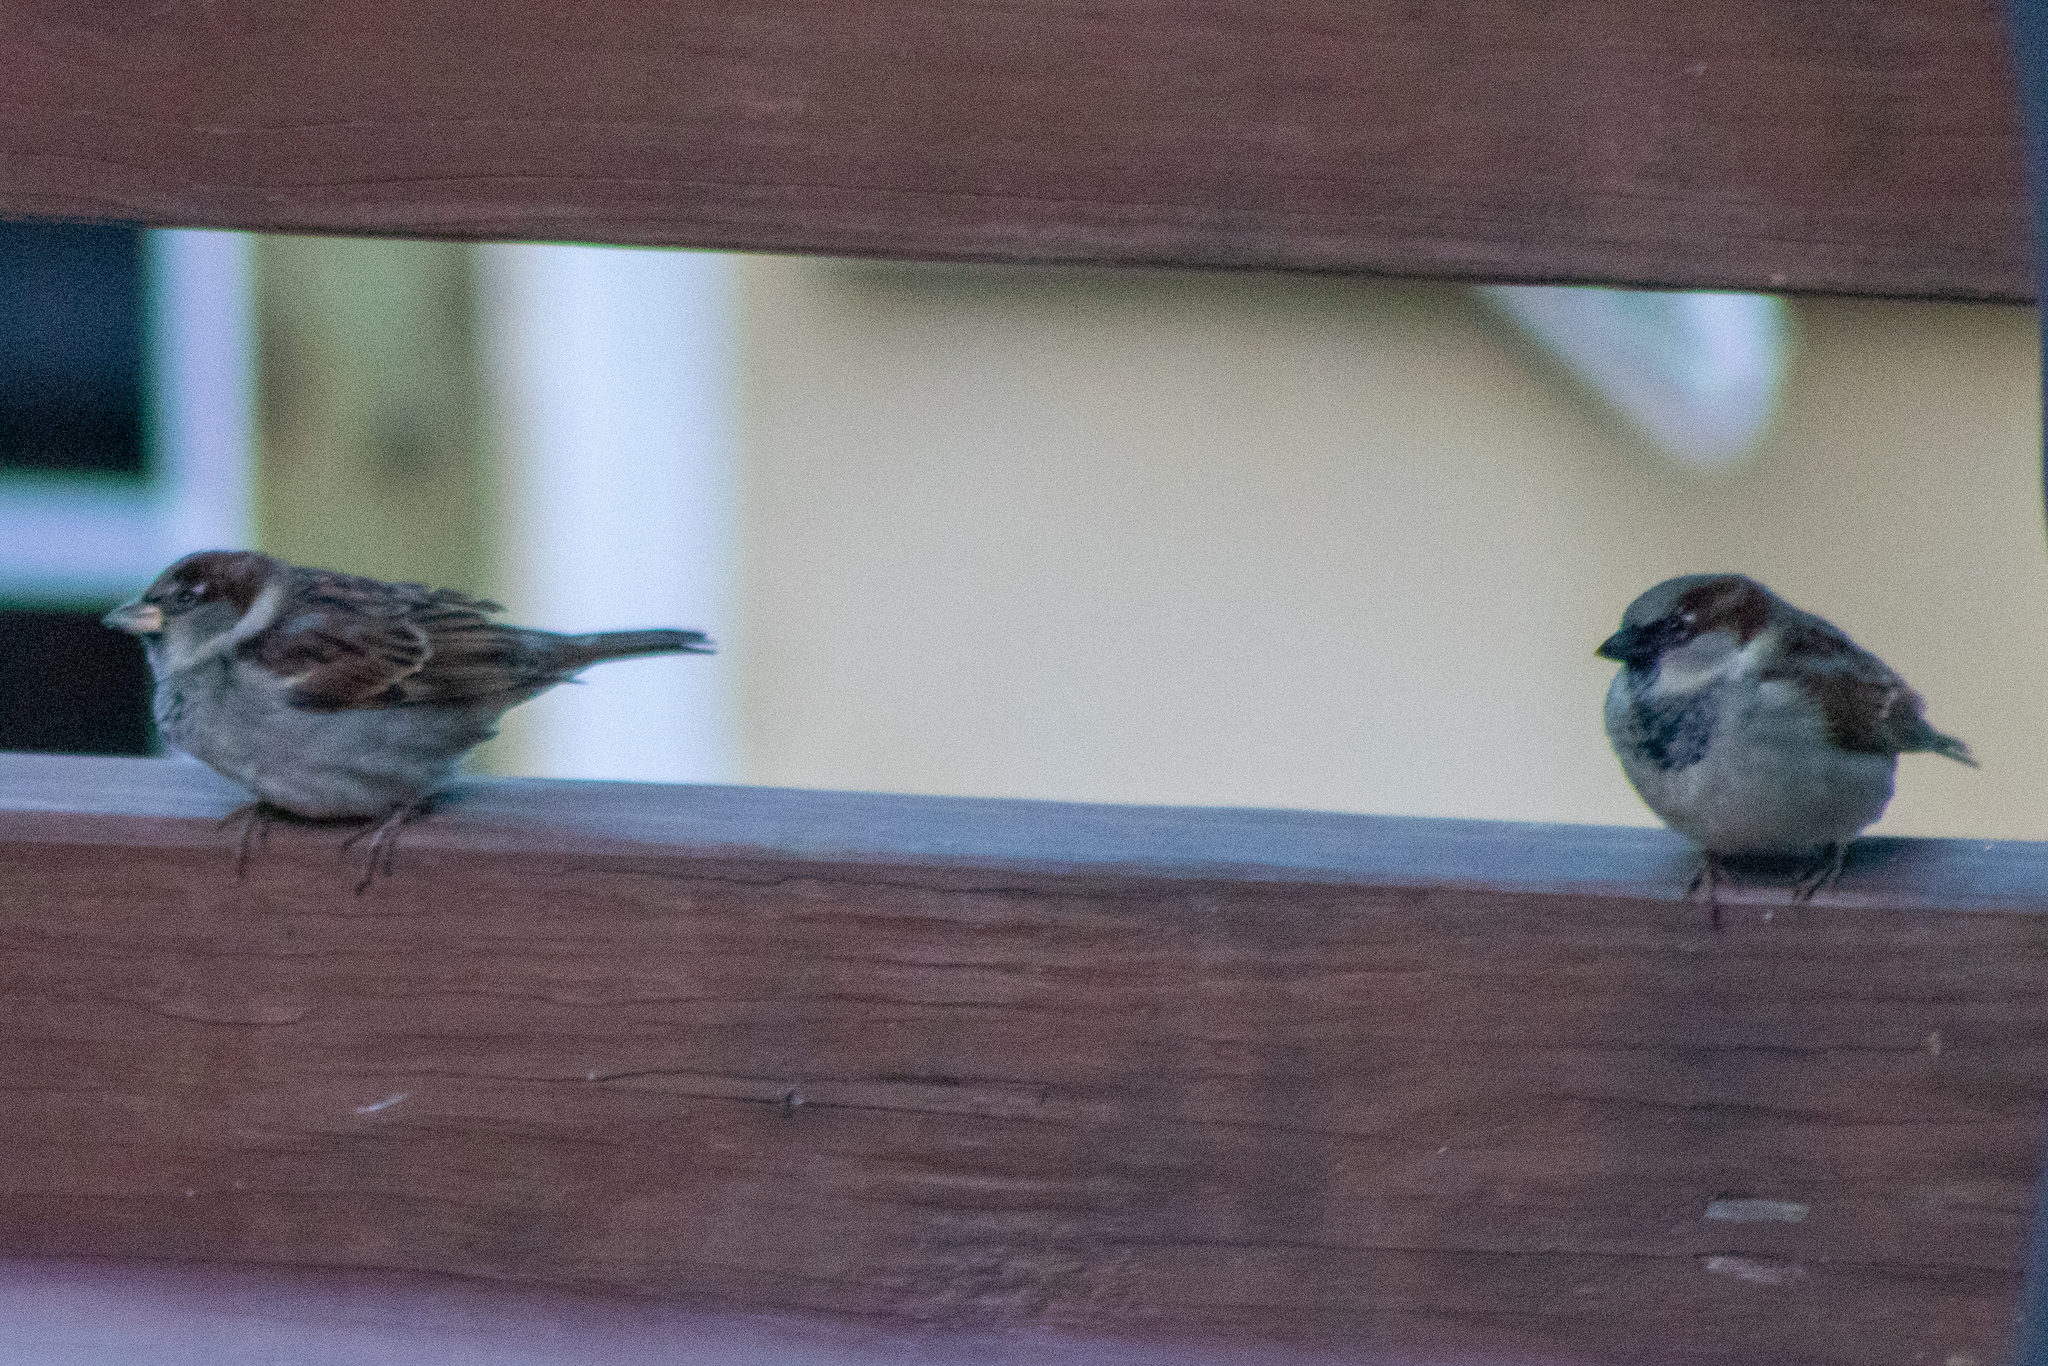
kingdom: Animalia
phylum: Chordata
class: Aves
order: Passeriformes
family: Passeridae
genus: Passer
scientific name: Passer domesticus
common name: House sparrow
